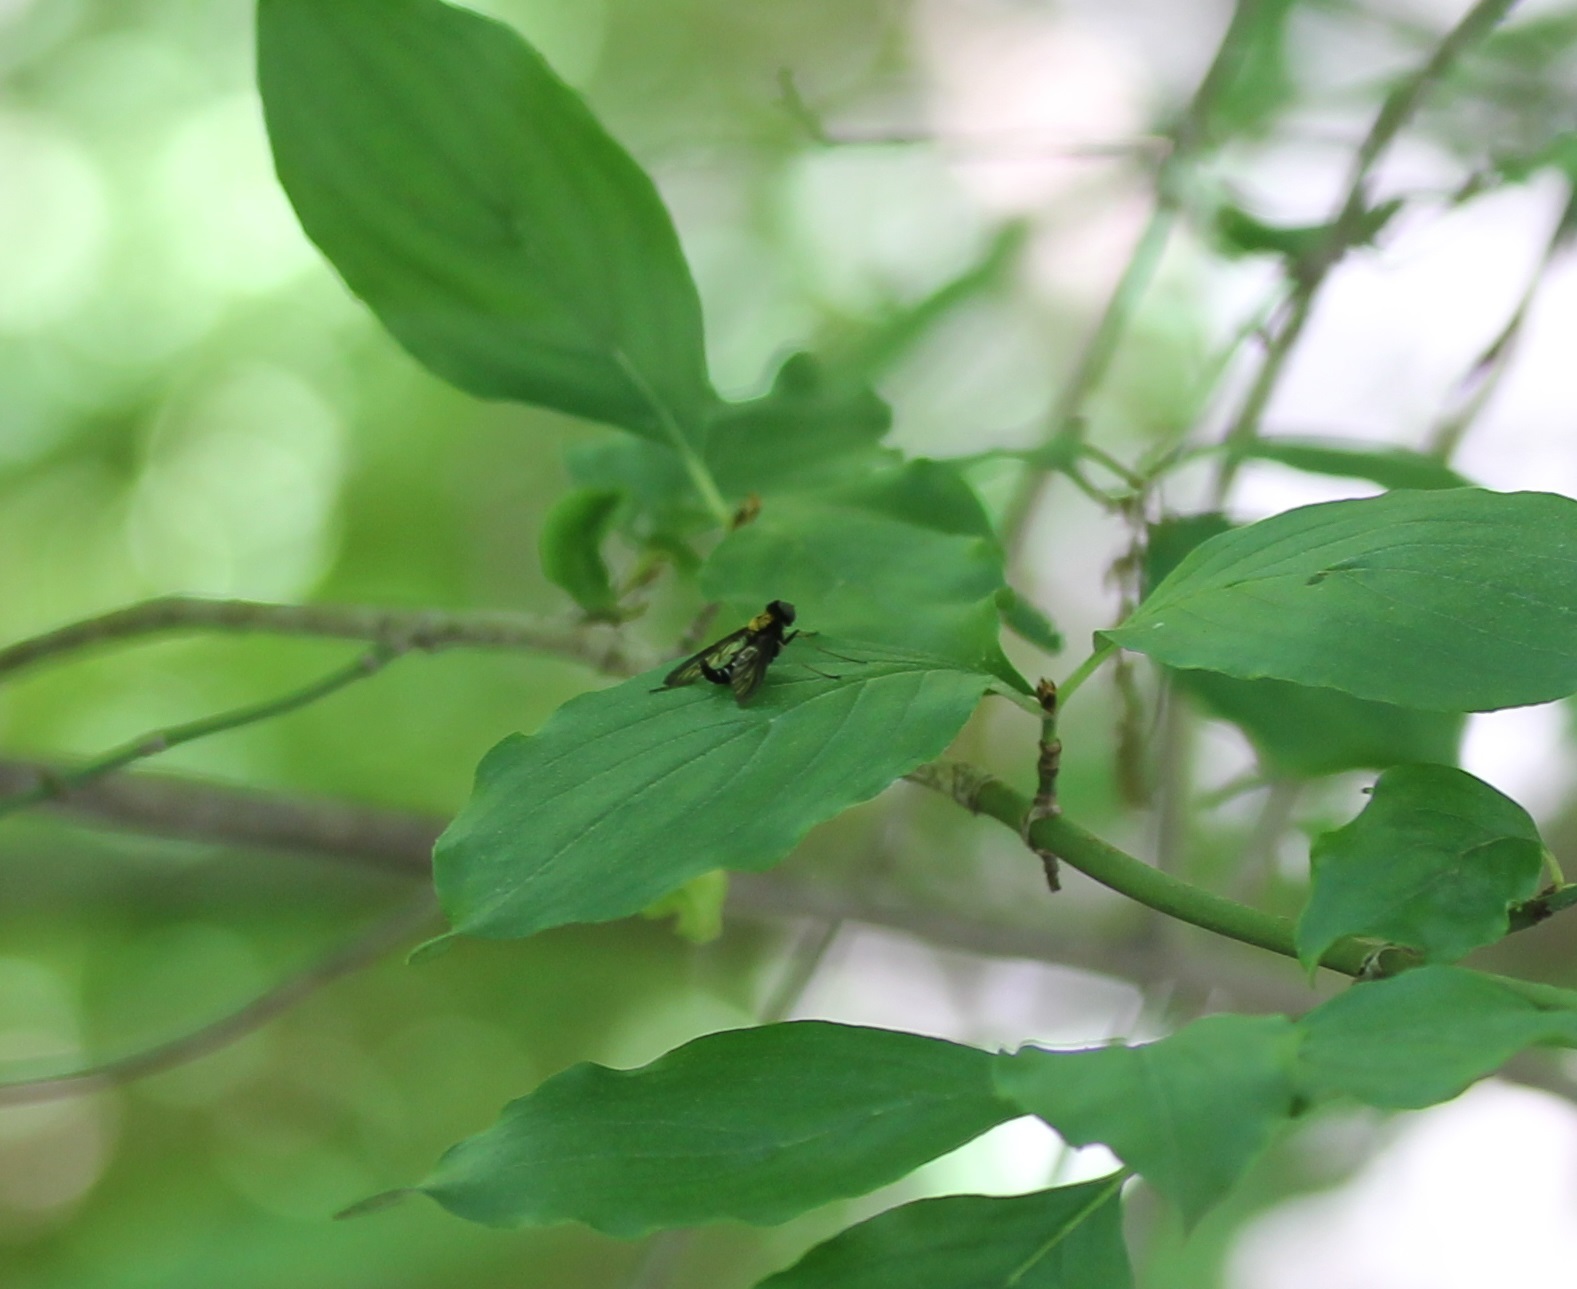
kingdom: Animalia
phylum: Arthropoda
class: Insecta
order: Diptera
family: Rhagionidae
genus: Chrysopilus
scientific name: Chrysopilus thoracicus
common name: Golden-backed snipe fly
